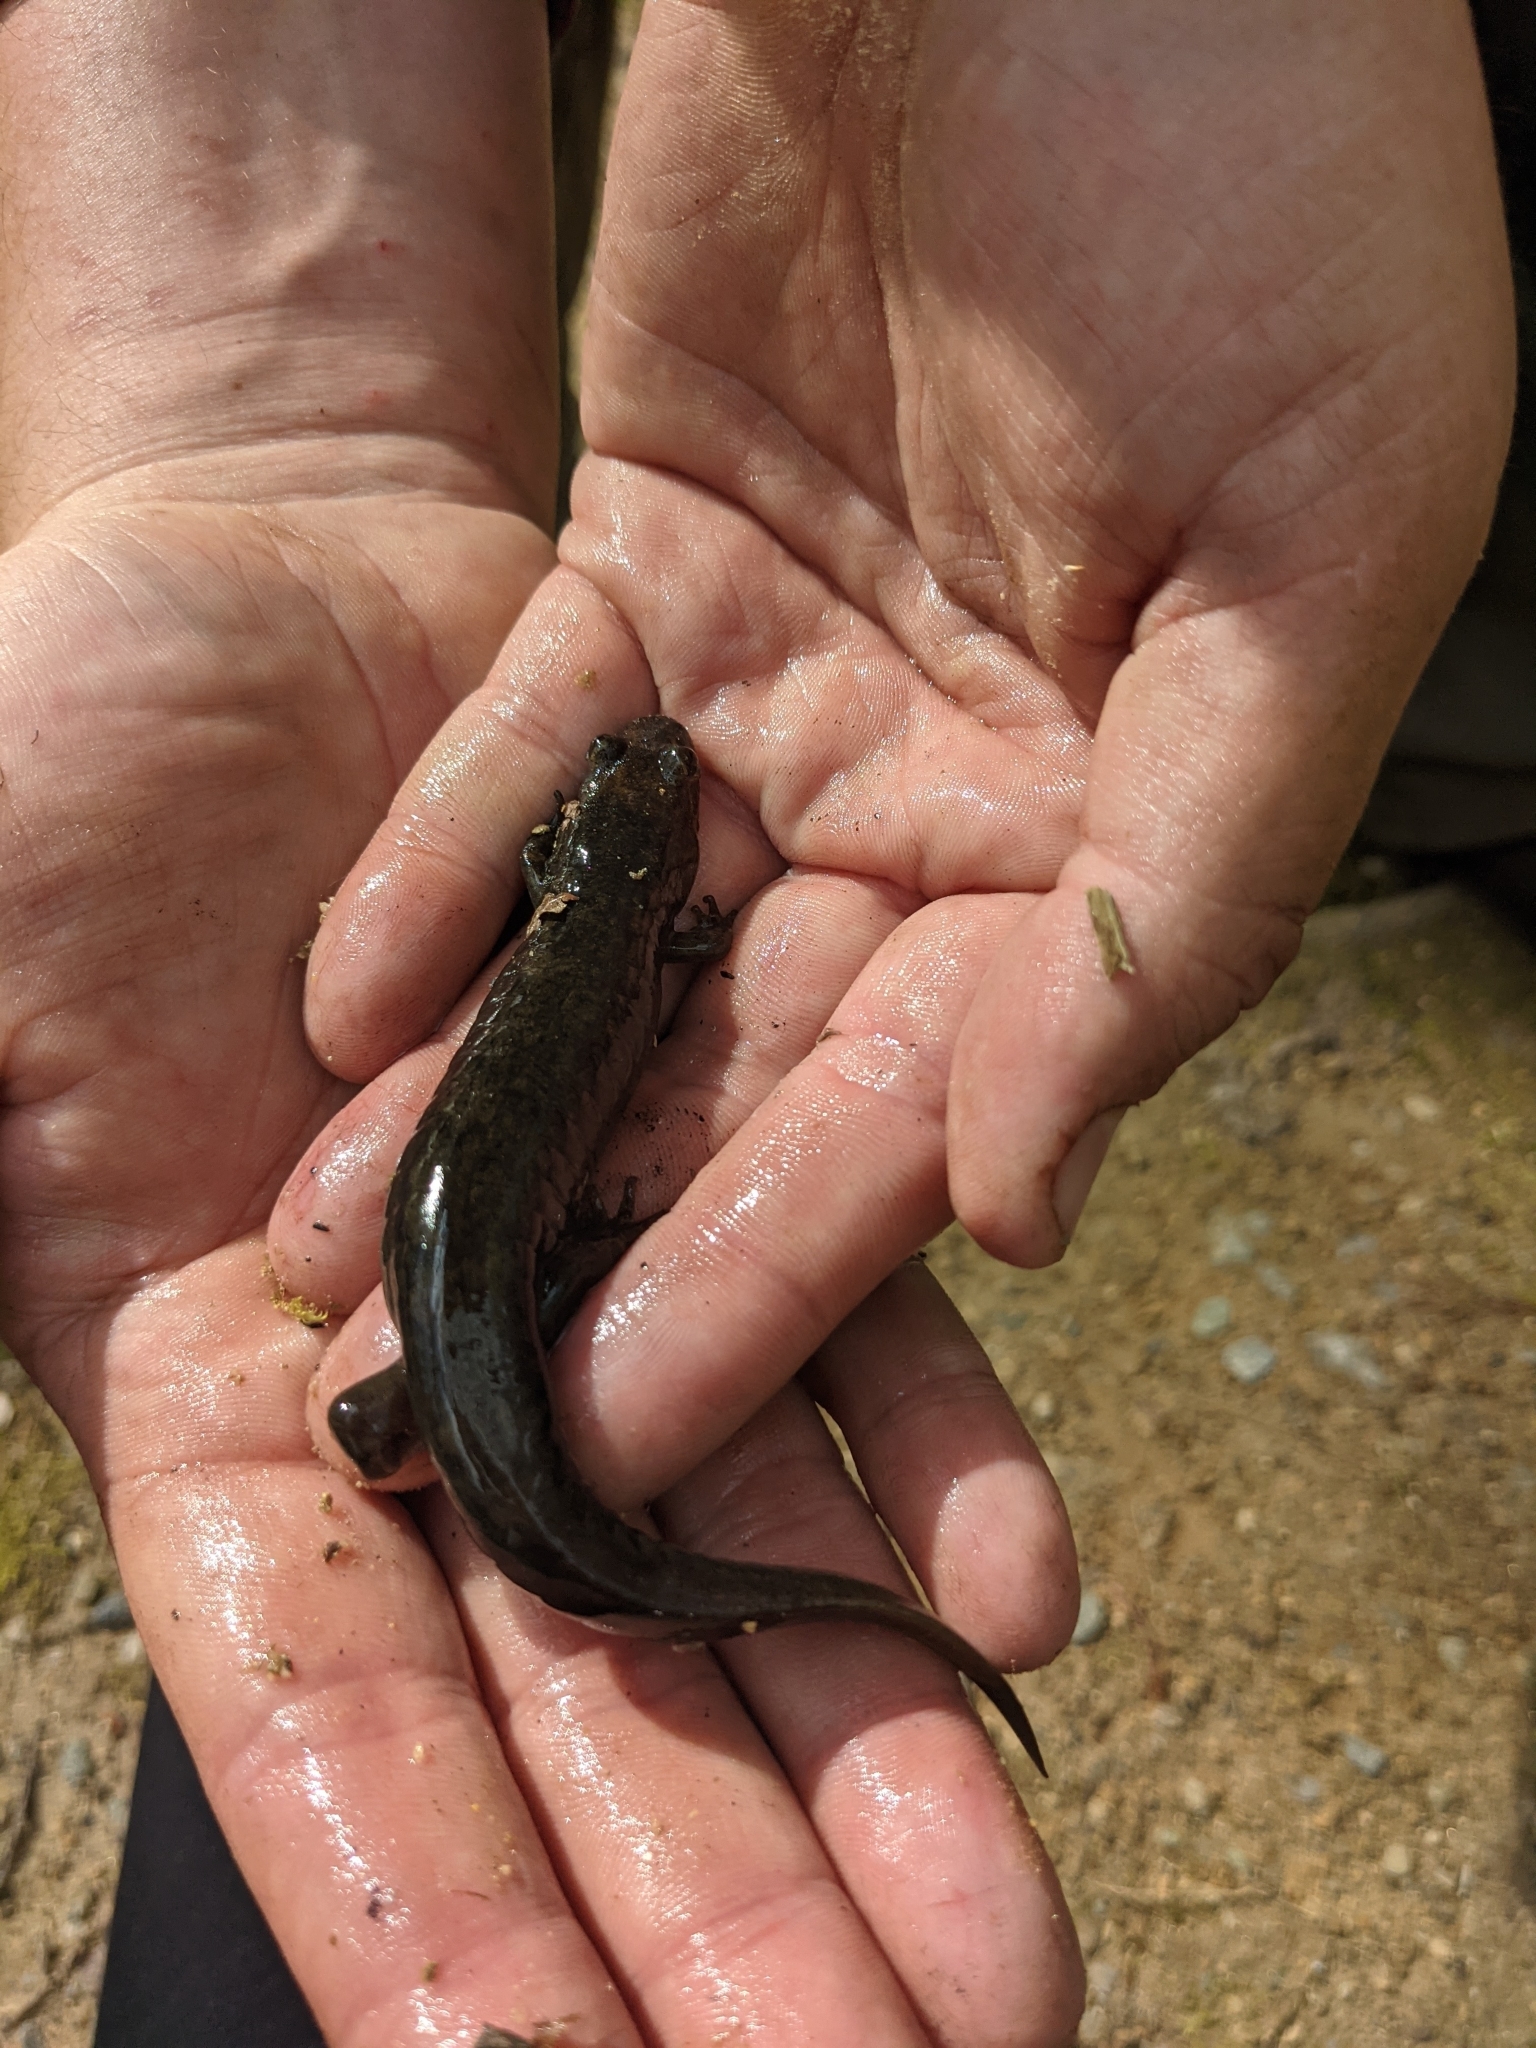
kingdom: Animalia
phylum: Chordata
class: Amphibia
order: Caudata
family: Plethodontidae
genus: Desmognathus
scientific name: Desmognathus
